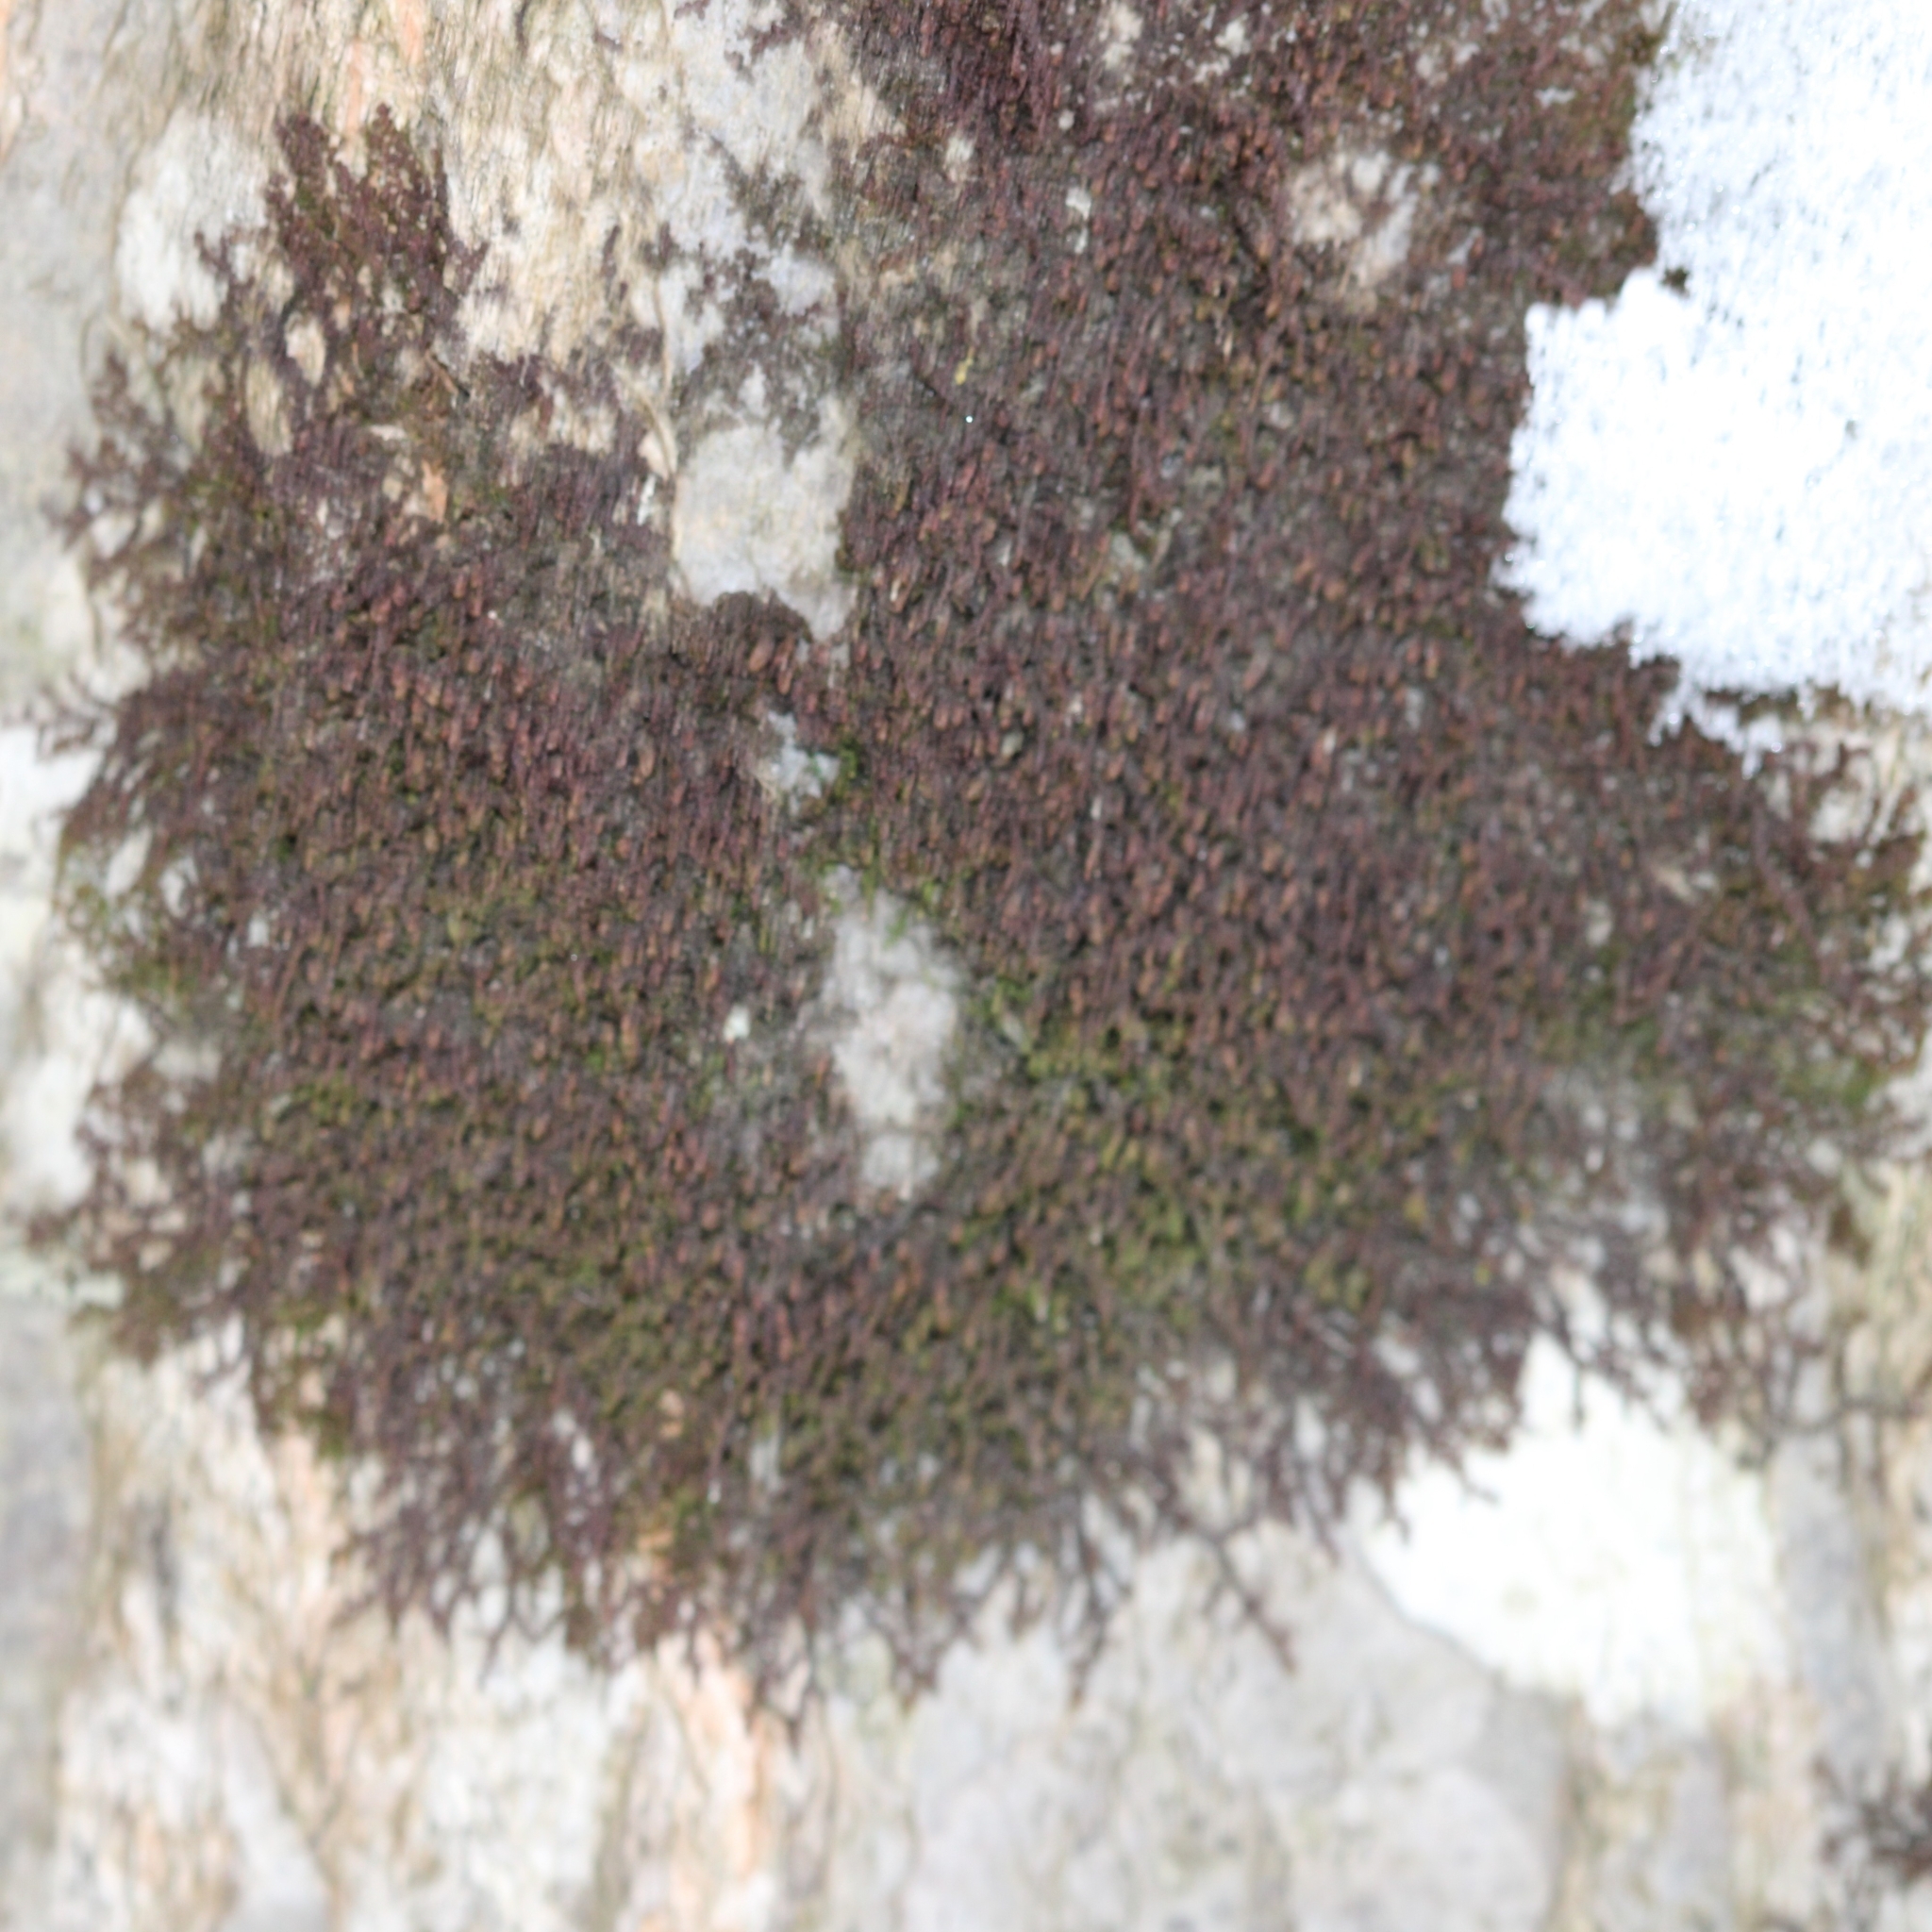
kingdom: Plantae
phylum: Marchantiophyta
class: Jungermanniopsida
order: Porellales
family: Frullaniaceae
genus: Frullania
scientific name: Frullania eboracensis
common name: New york scalewort
